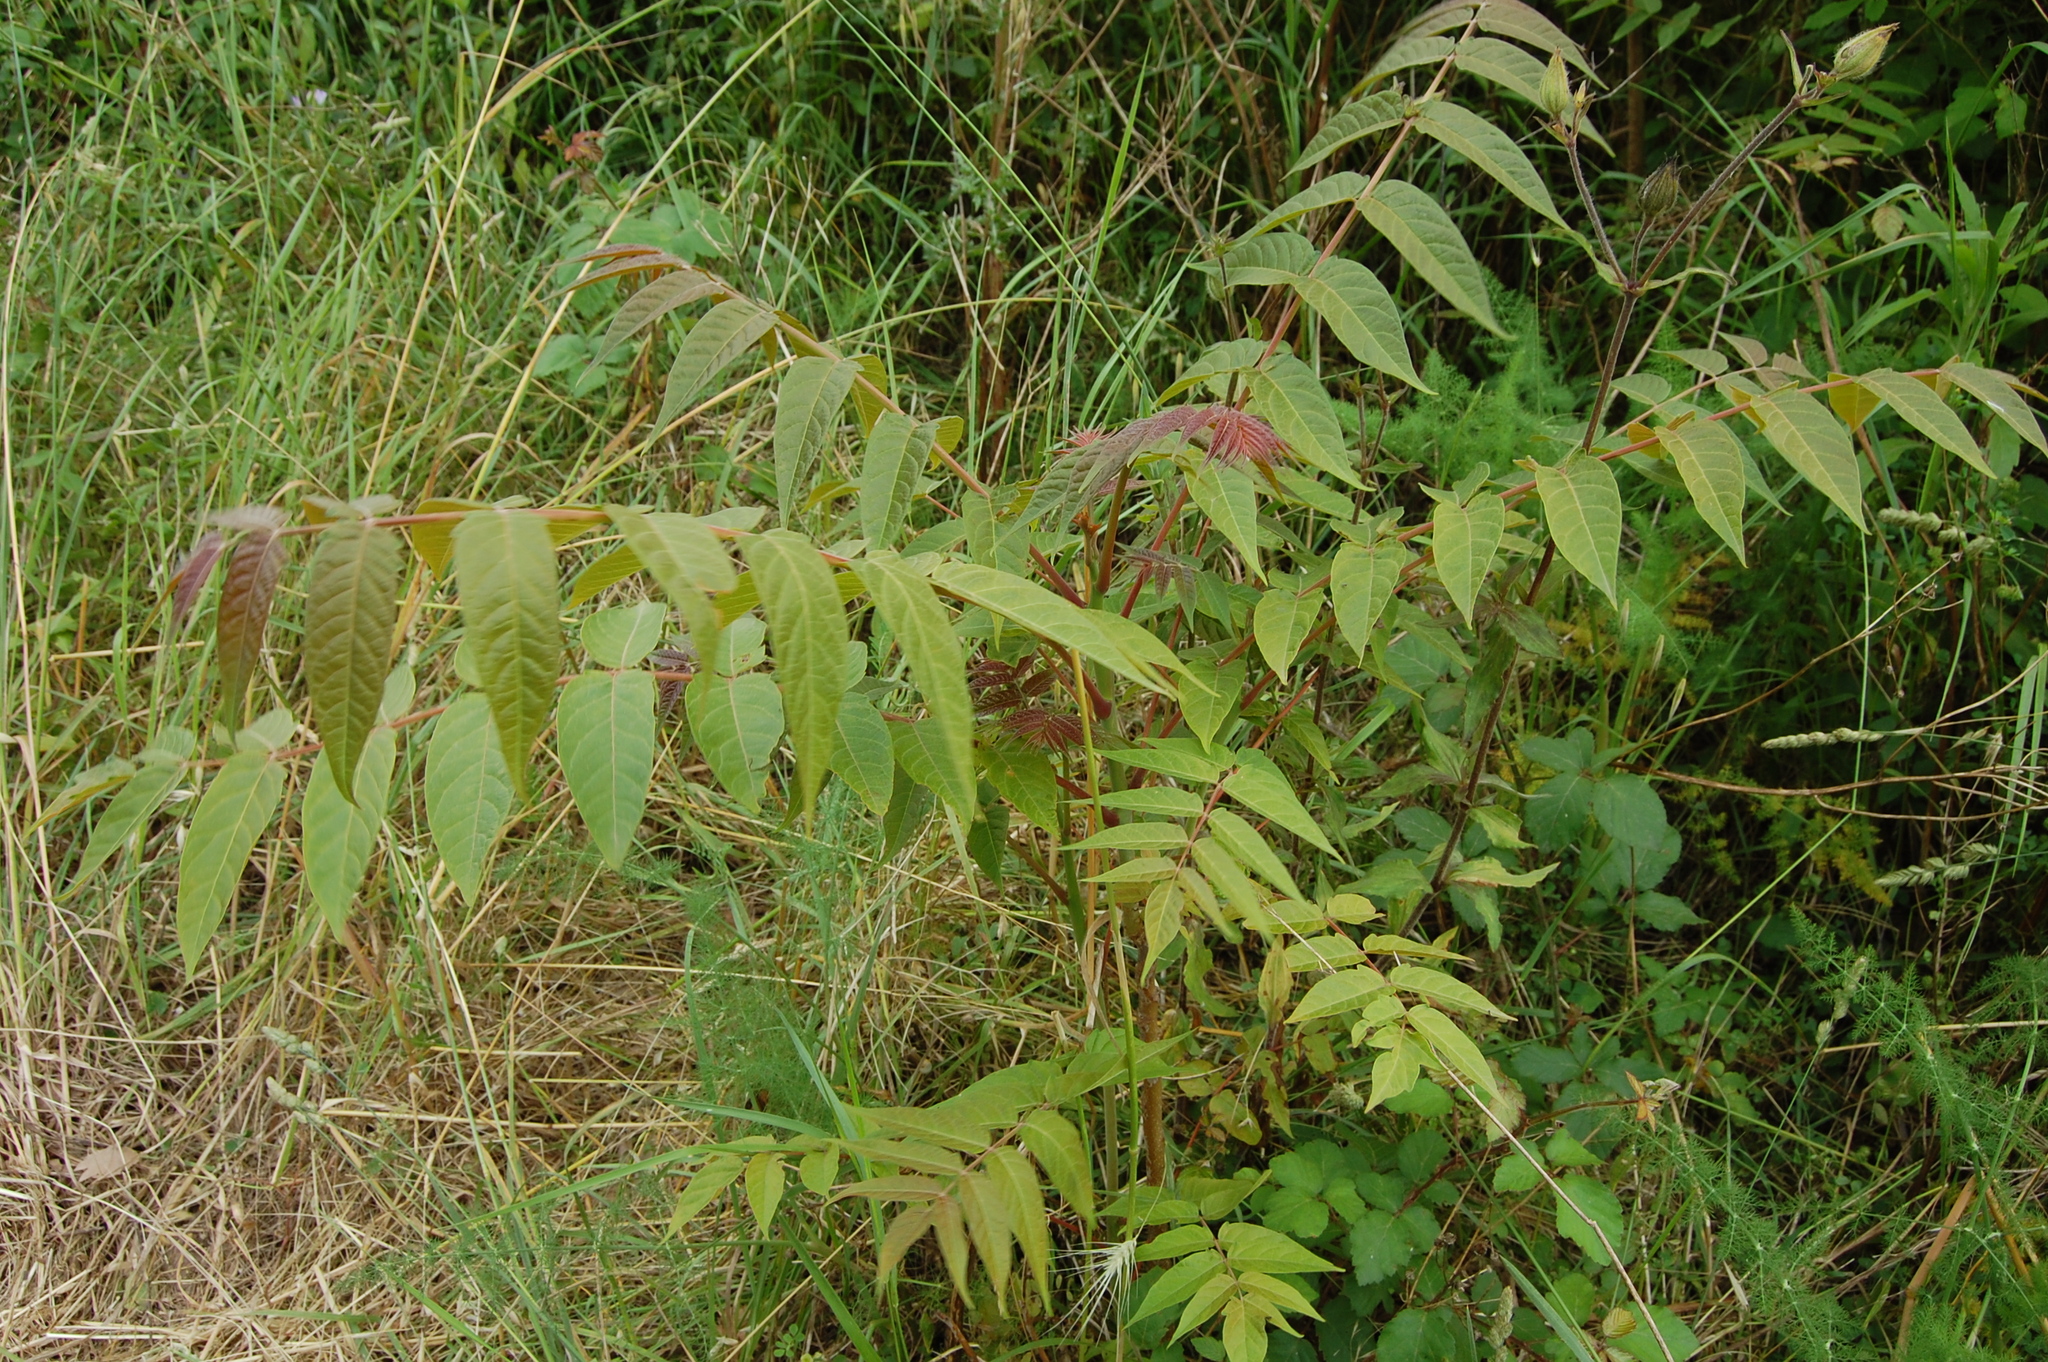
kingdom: Plantae
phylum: Tracheophyta
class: Magnoliopsida
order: Sapindales
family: Simaroubaceae
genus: Ailanthus
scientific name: Ailanthus altissima
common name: Tree-of-heaven
